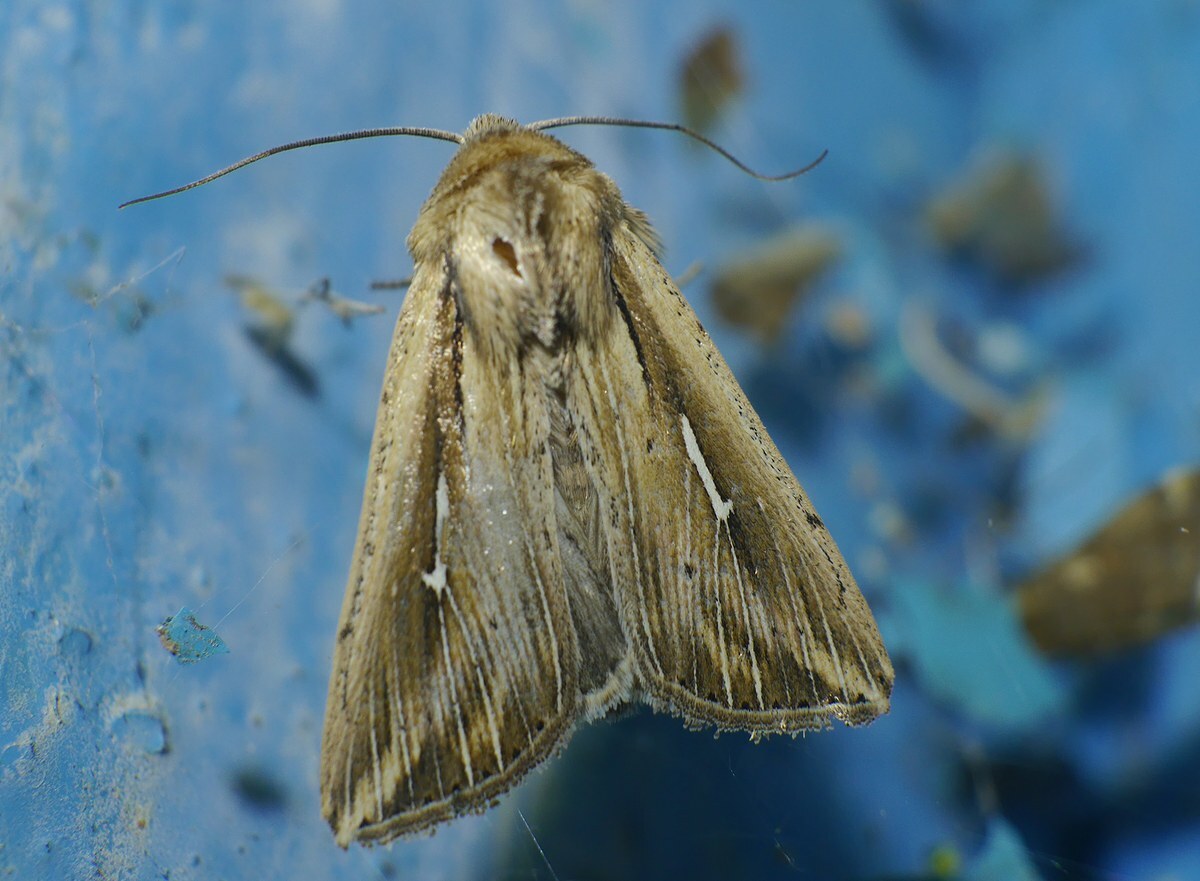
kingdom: Animalia
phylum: Arthropoda
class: Insecta
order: Lepidoptera
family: Noctuidae
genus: Mythimna
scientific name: Mythimna l-album
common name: L-album wainscot
